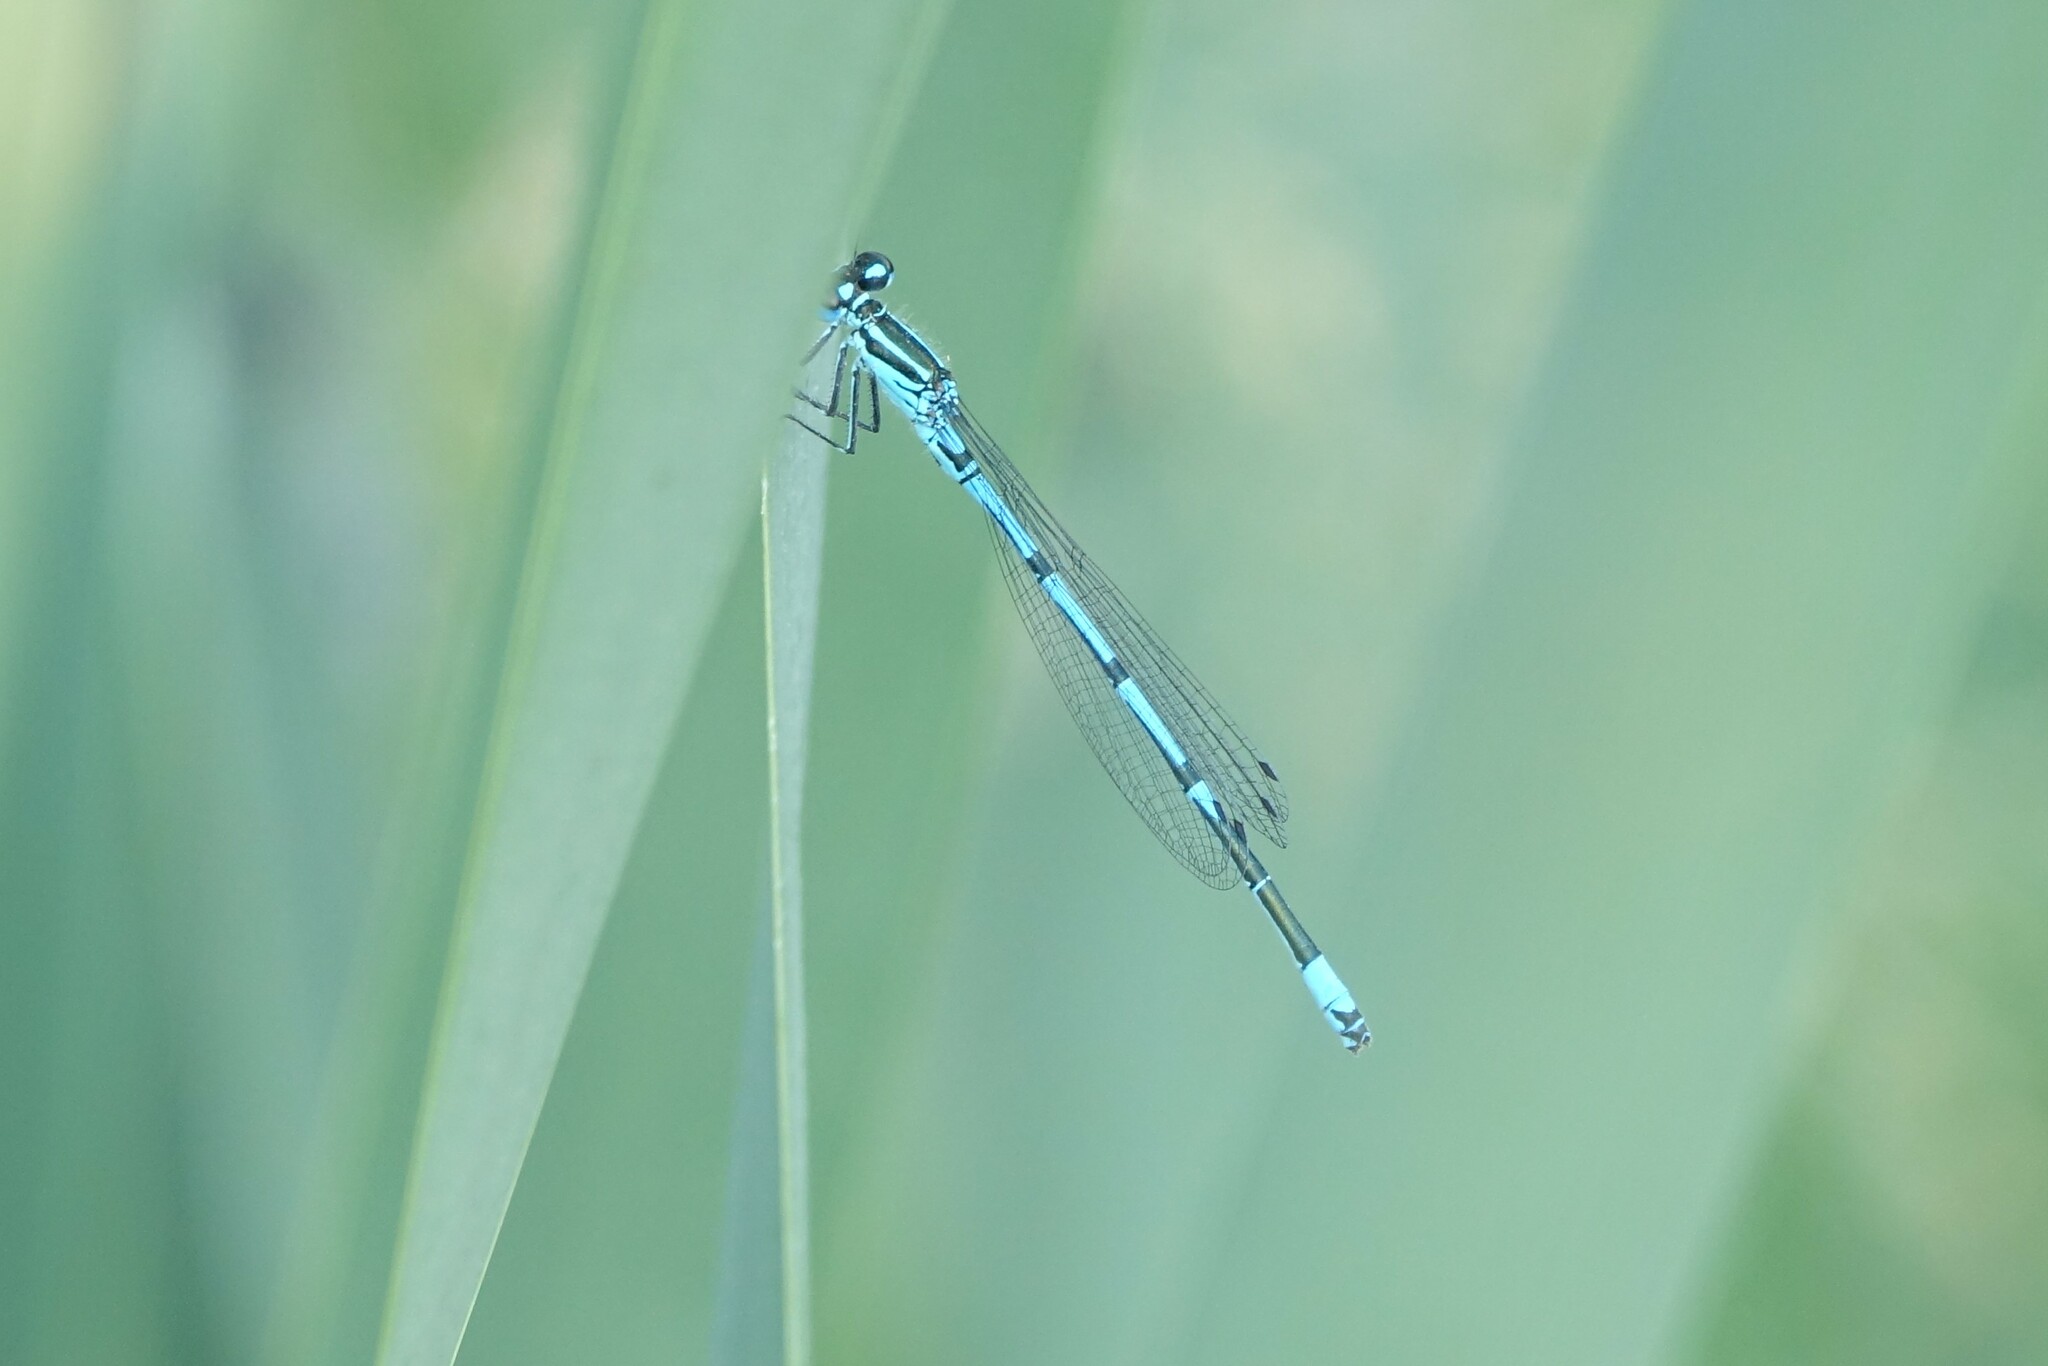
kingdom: Animalia
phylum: Arthropoda
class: Insecta
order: Odonata
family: Coenagrionidae
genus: Coenagrion
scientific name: Coenagrion puella
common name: Azure damselfly
